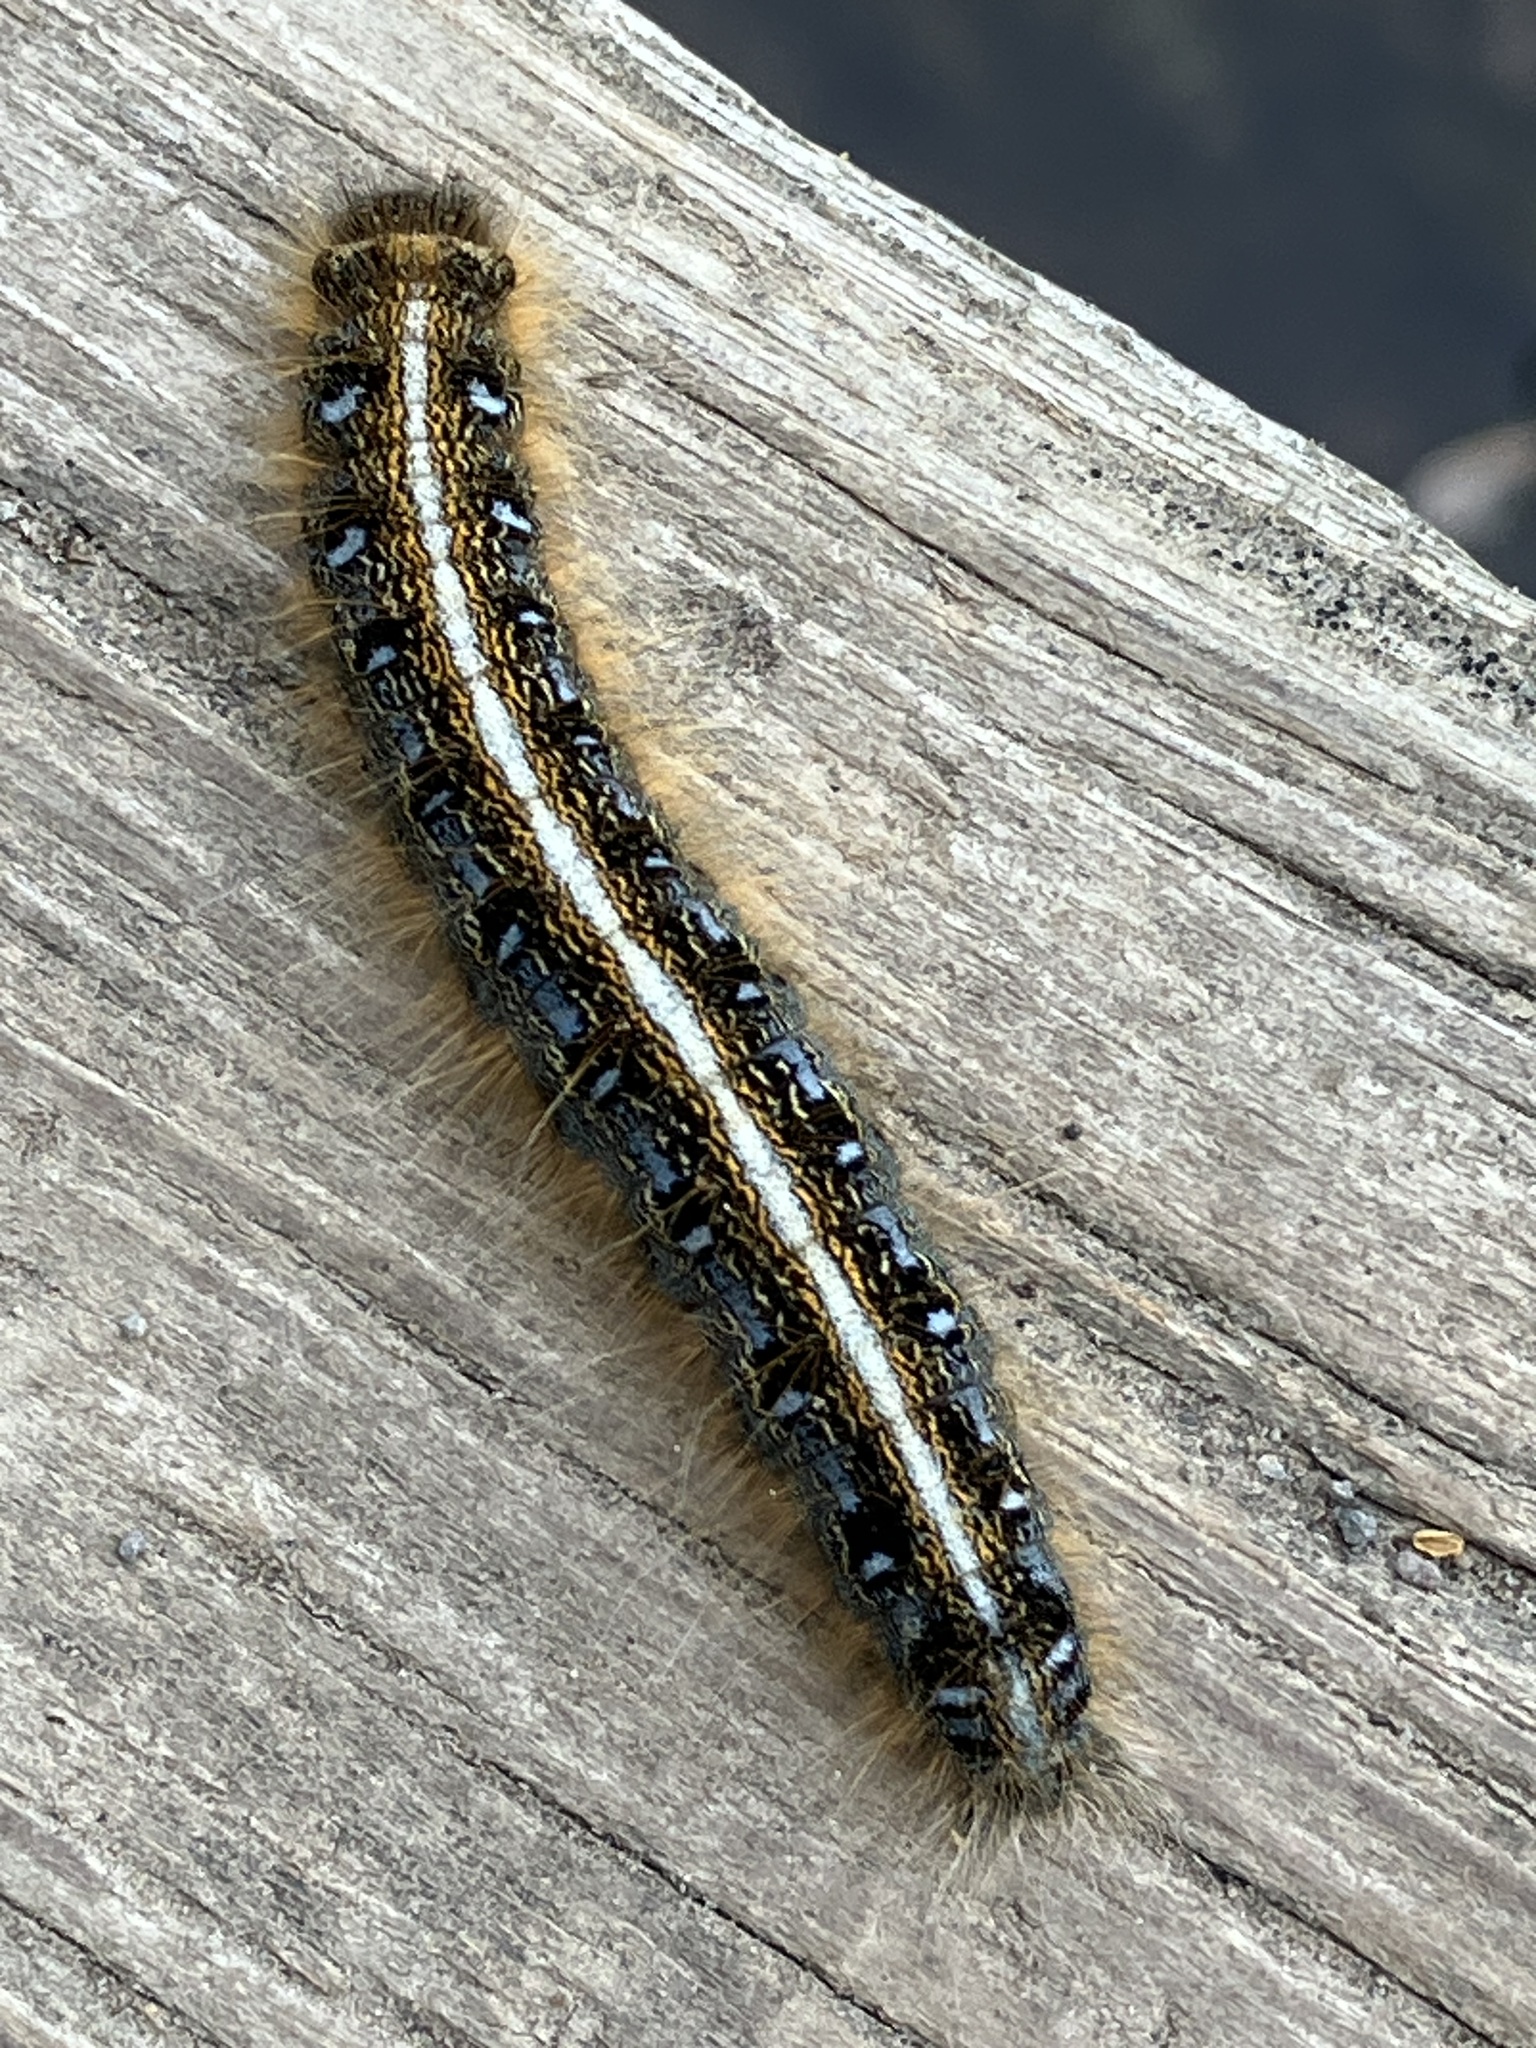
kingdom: Animalia
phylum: Arthropoda
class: Insecta
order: Lepidoptera
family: Lasiocampidae
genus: Malacosoma
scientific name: Malacosoma americana
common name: Eastern tent caterpillar moth
